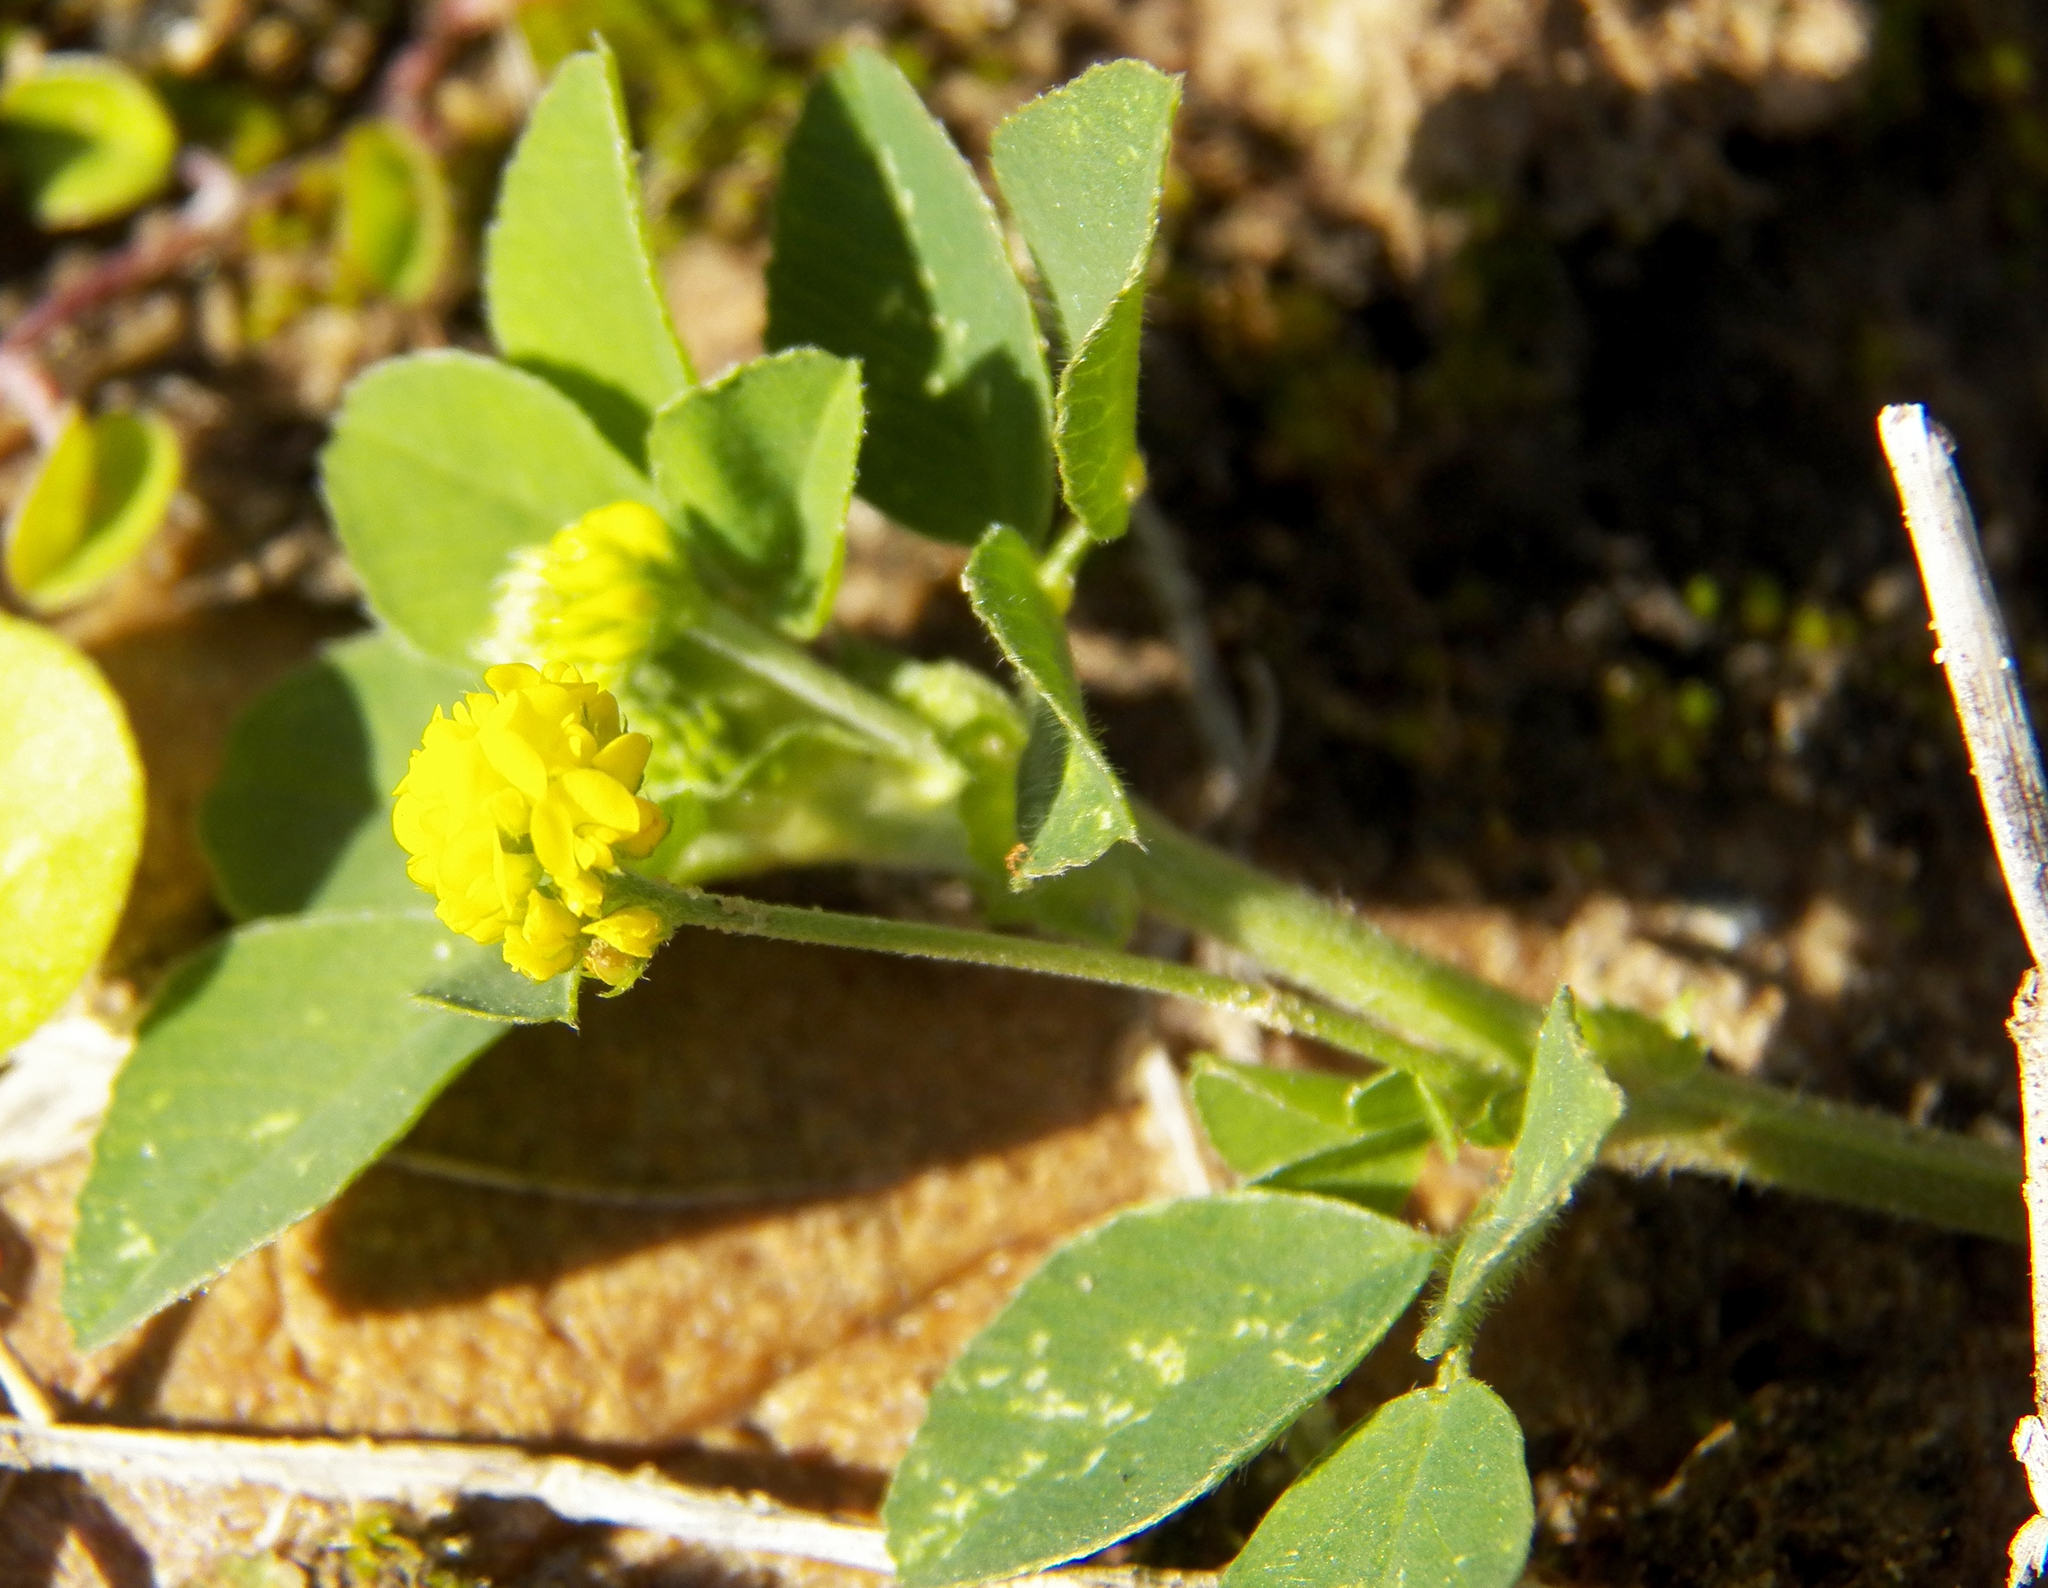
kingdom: Plantae
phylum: Tracheophyta
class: Magnoliopsida
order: Fabales
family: Fabaceae
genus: Medicago
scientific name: Medicago lupulina
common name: Black medick
